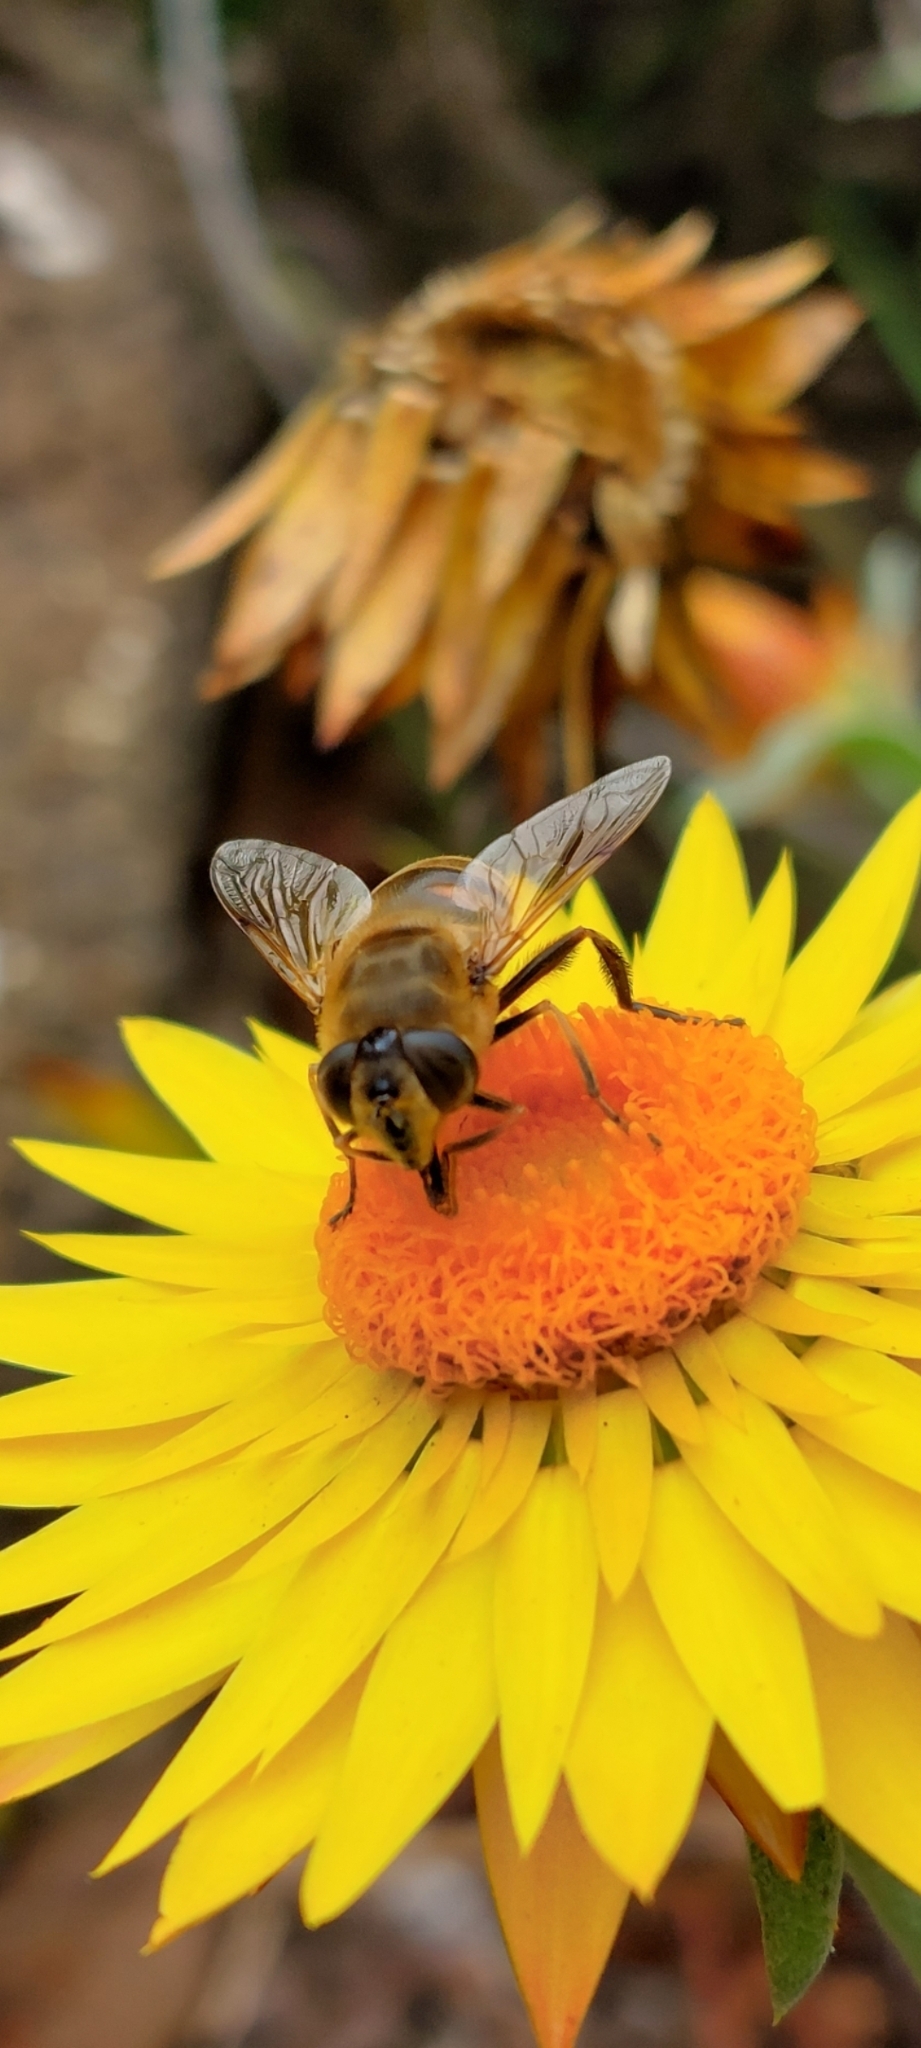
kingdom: Animalia
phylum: Arthropoda
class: Insecta
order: Diptera
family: Syrphidae
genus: Eristalis
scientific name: Eristalis tenax
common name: Drone fly
